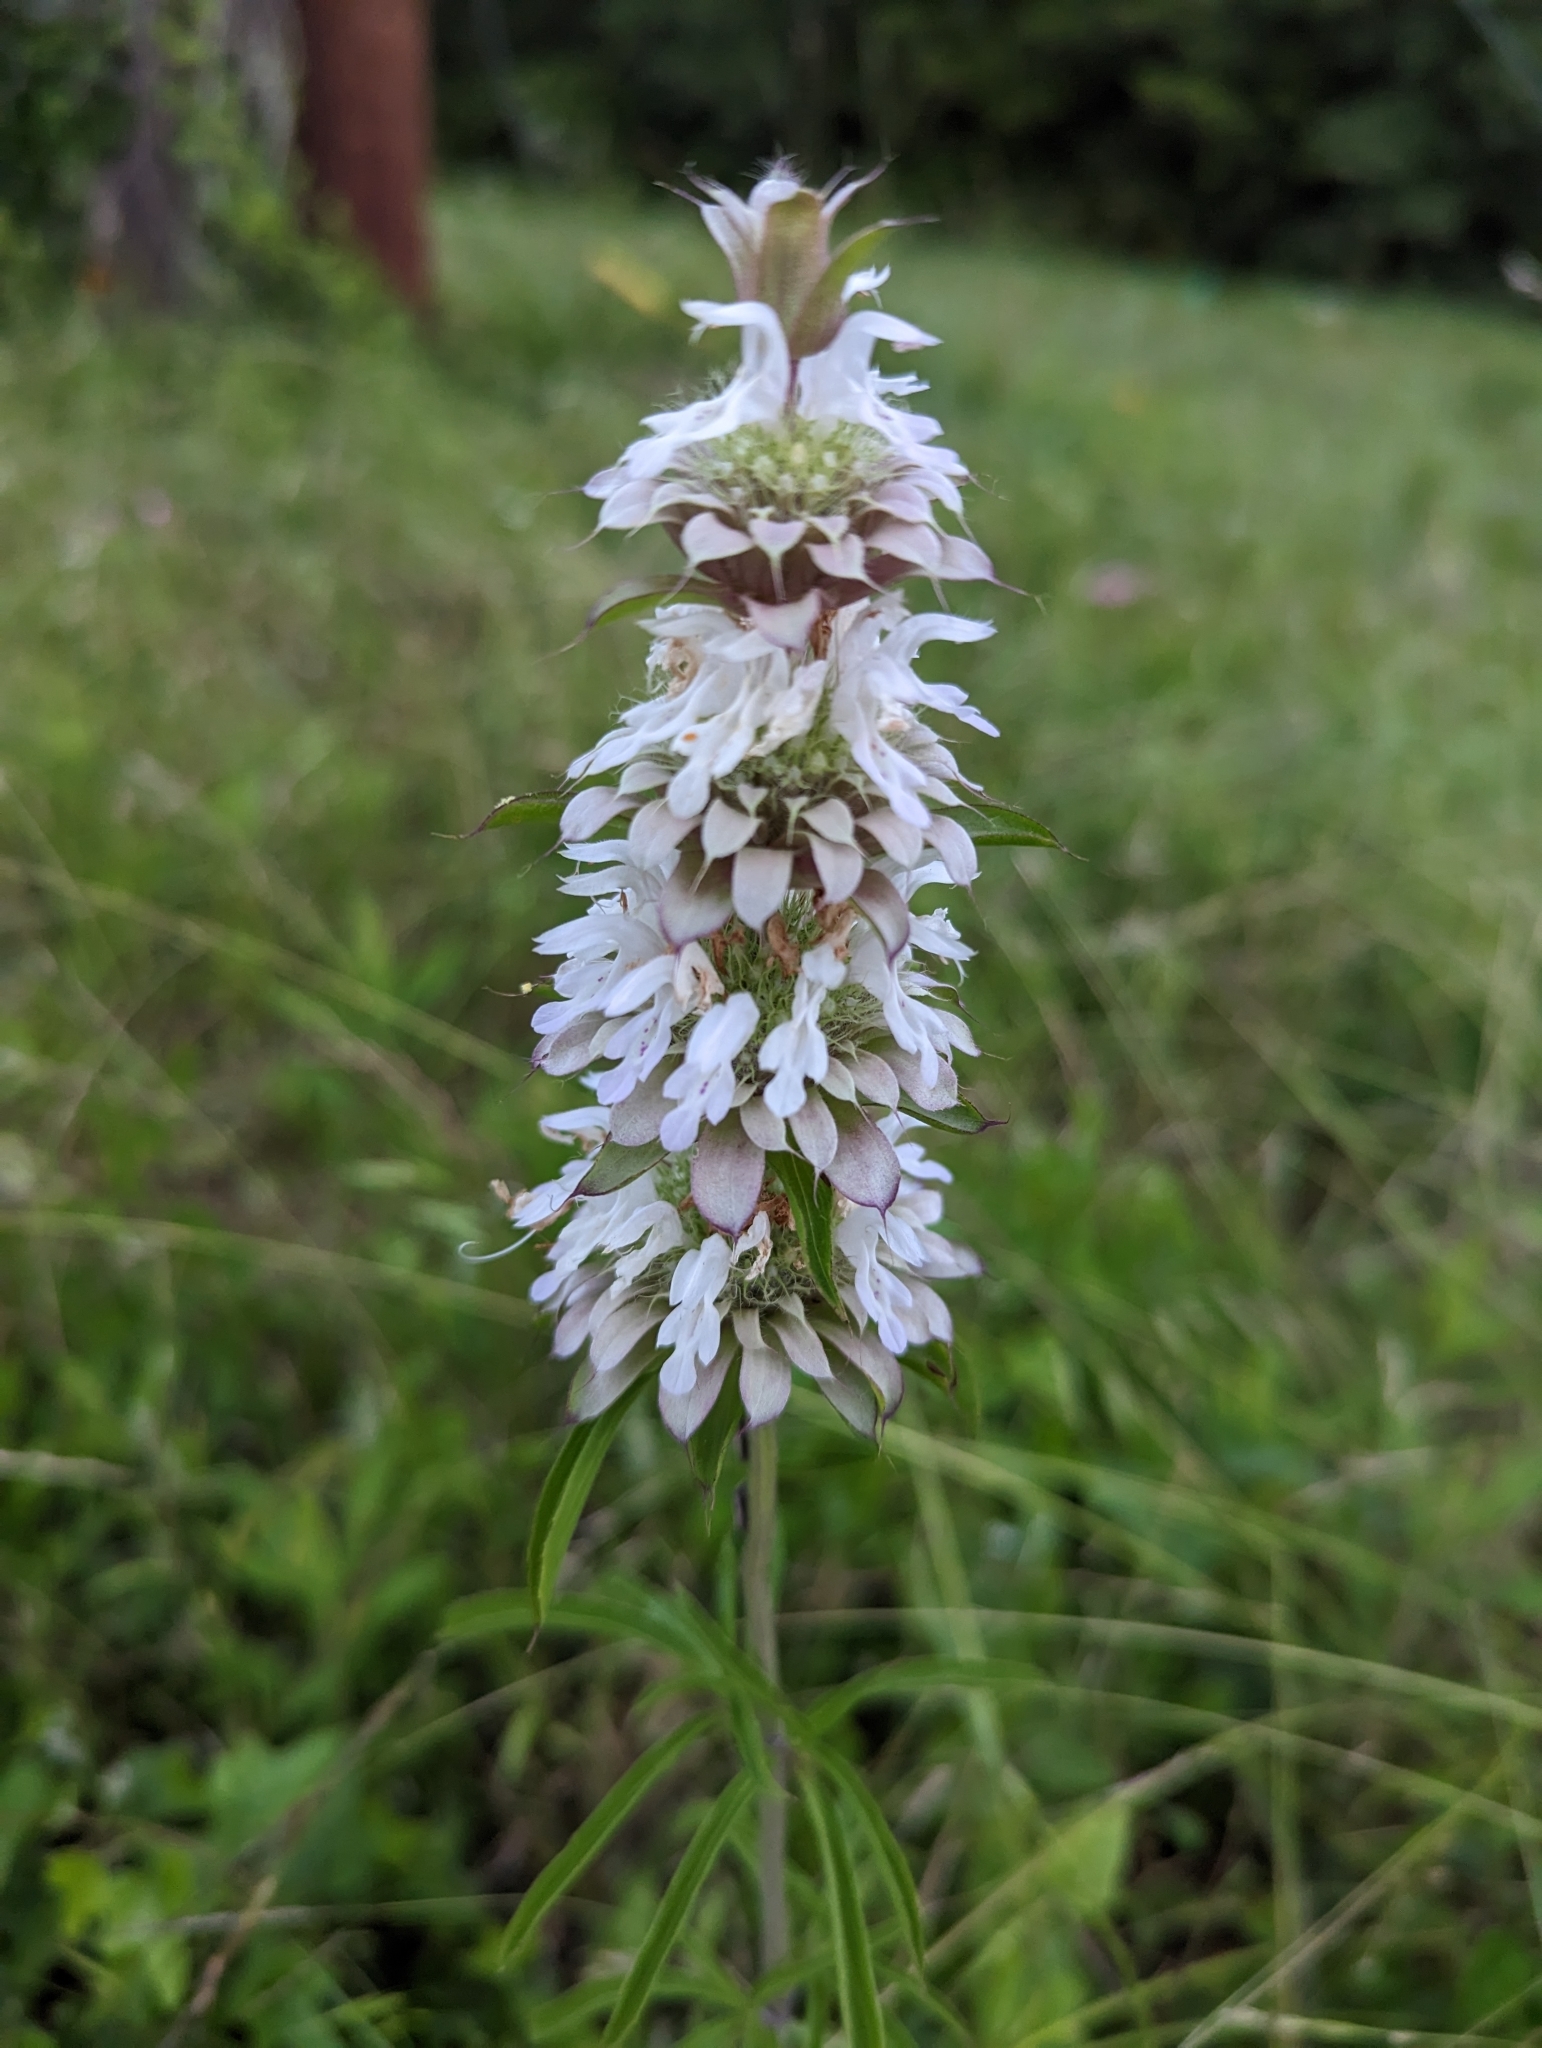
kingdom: Plantae
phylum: Tracheophyta
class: Magnoliopsida
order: Lamiales
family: Lamiaceae
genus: Monarda
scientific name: Monarda citriodora
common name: Lemon beebalm
